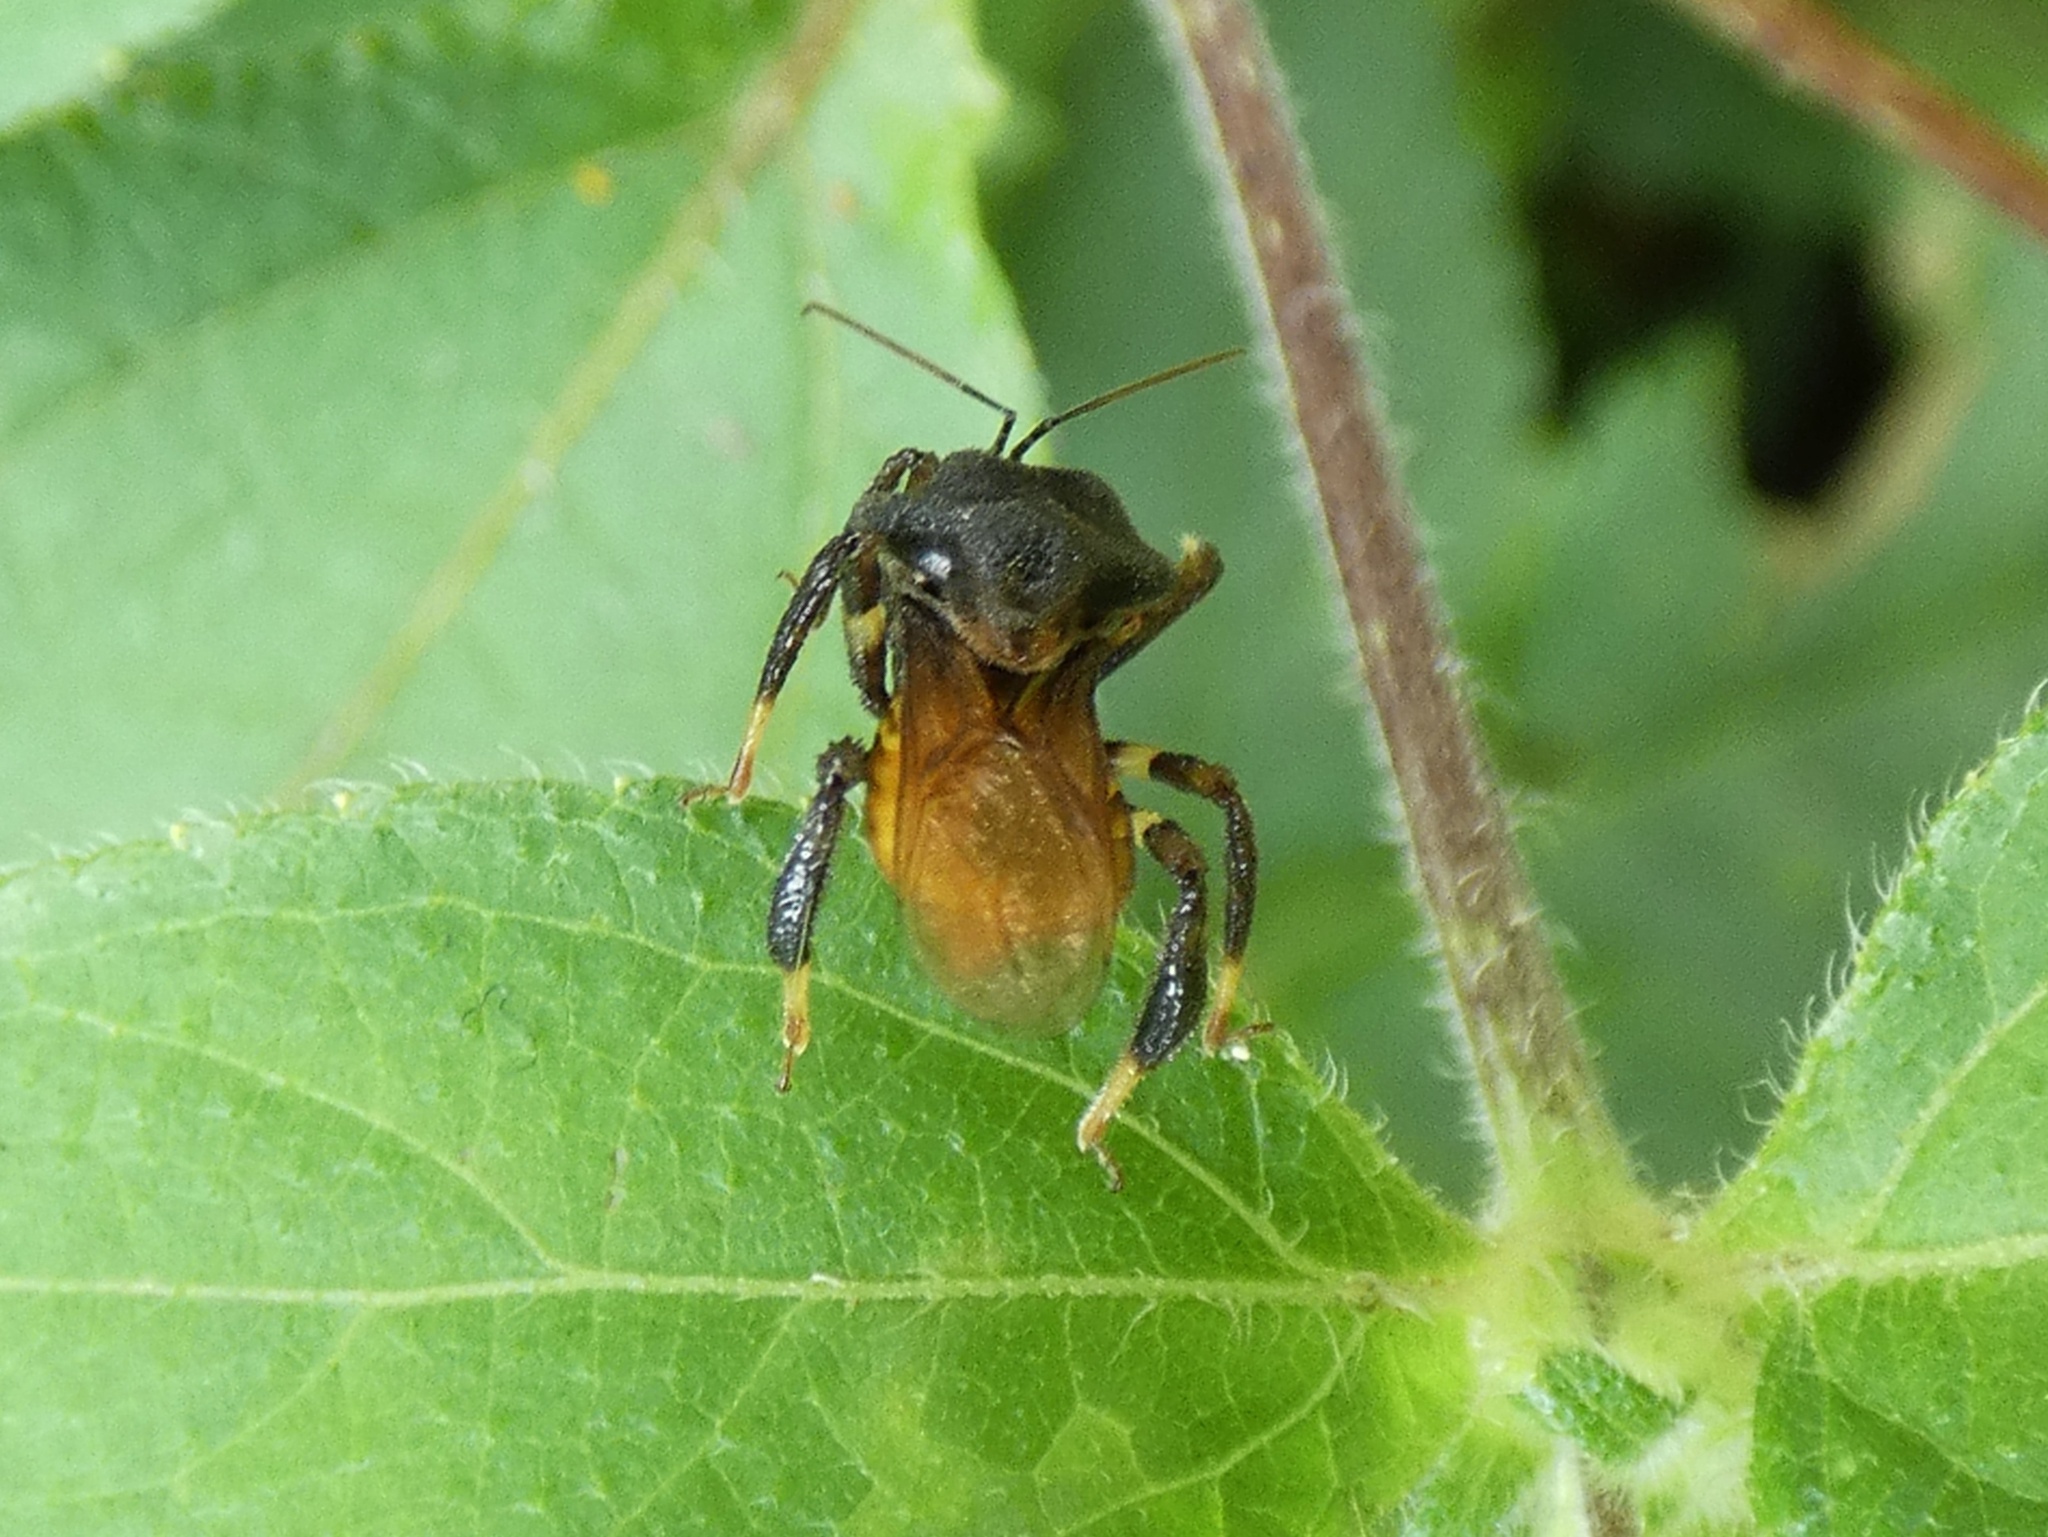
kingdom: Animalia
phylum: Arthropoda
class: Insecta
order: Hemiptera
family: Reduviidae
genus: Notocyrtus
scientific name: Notocyrtus dorsalis
